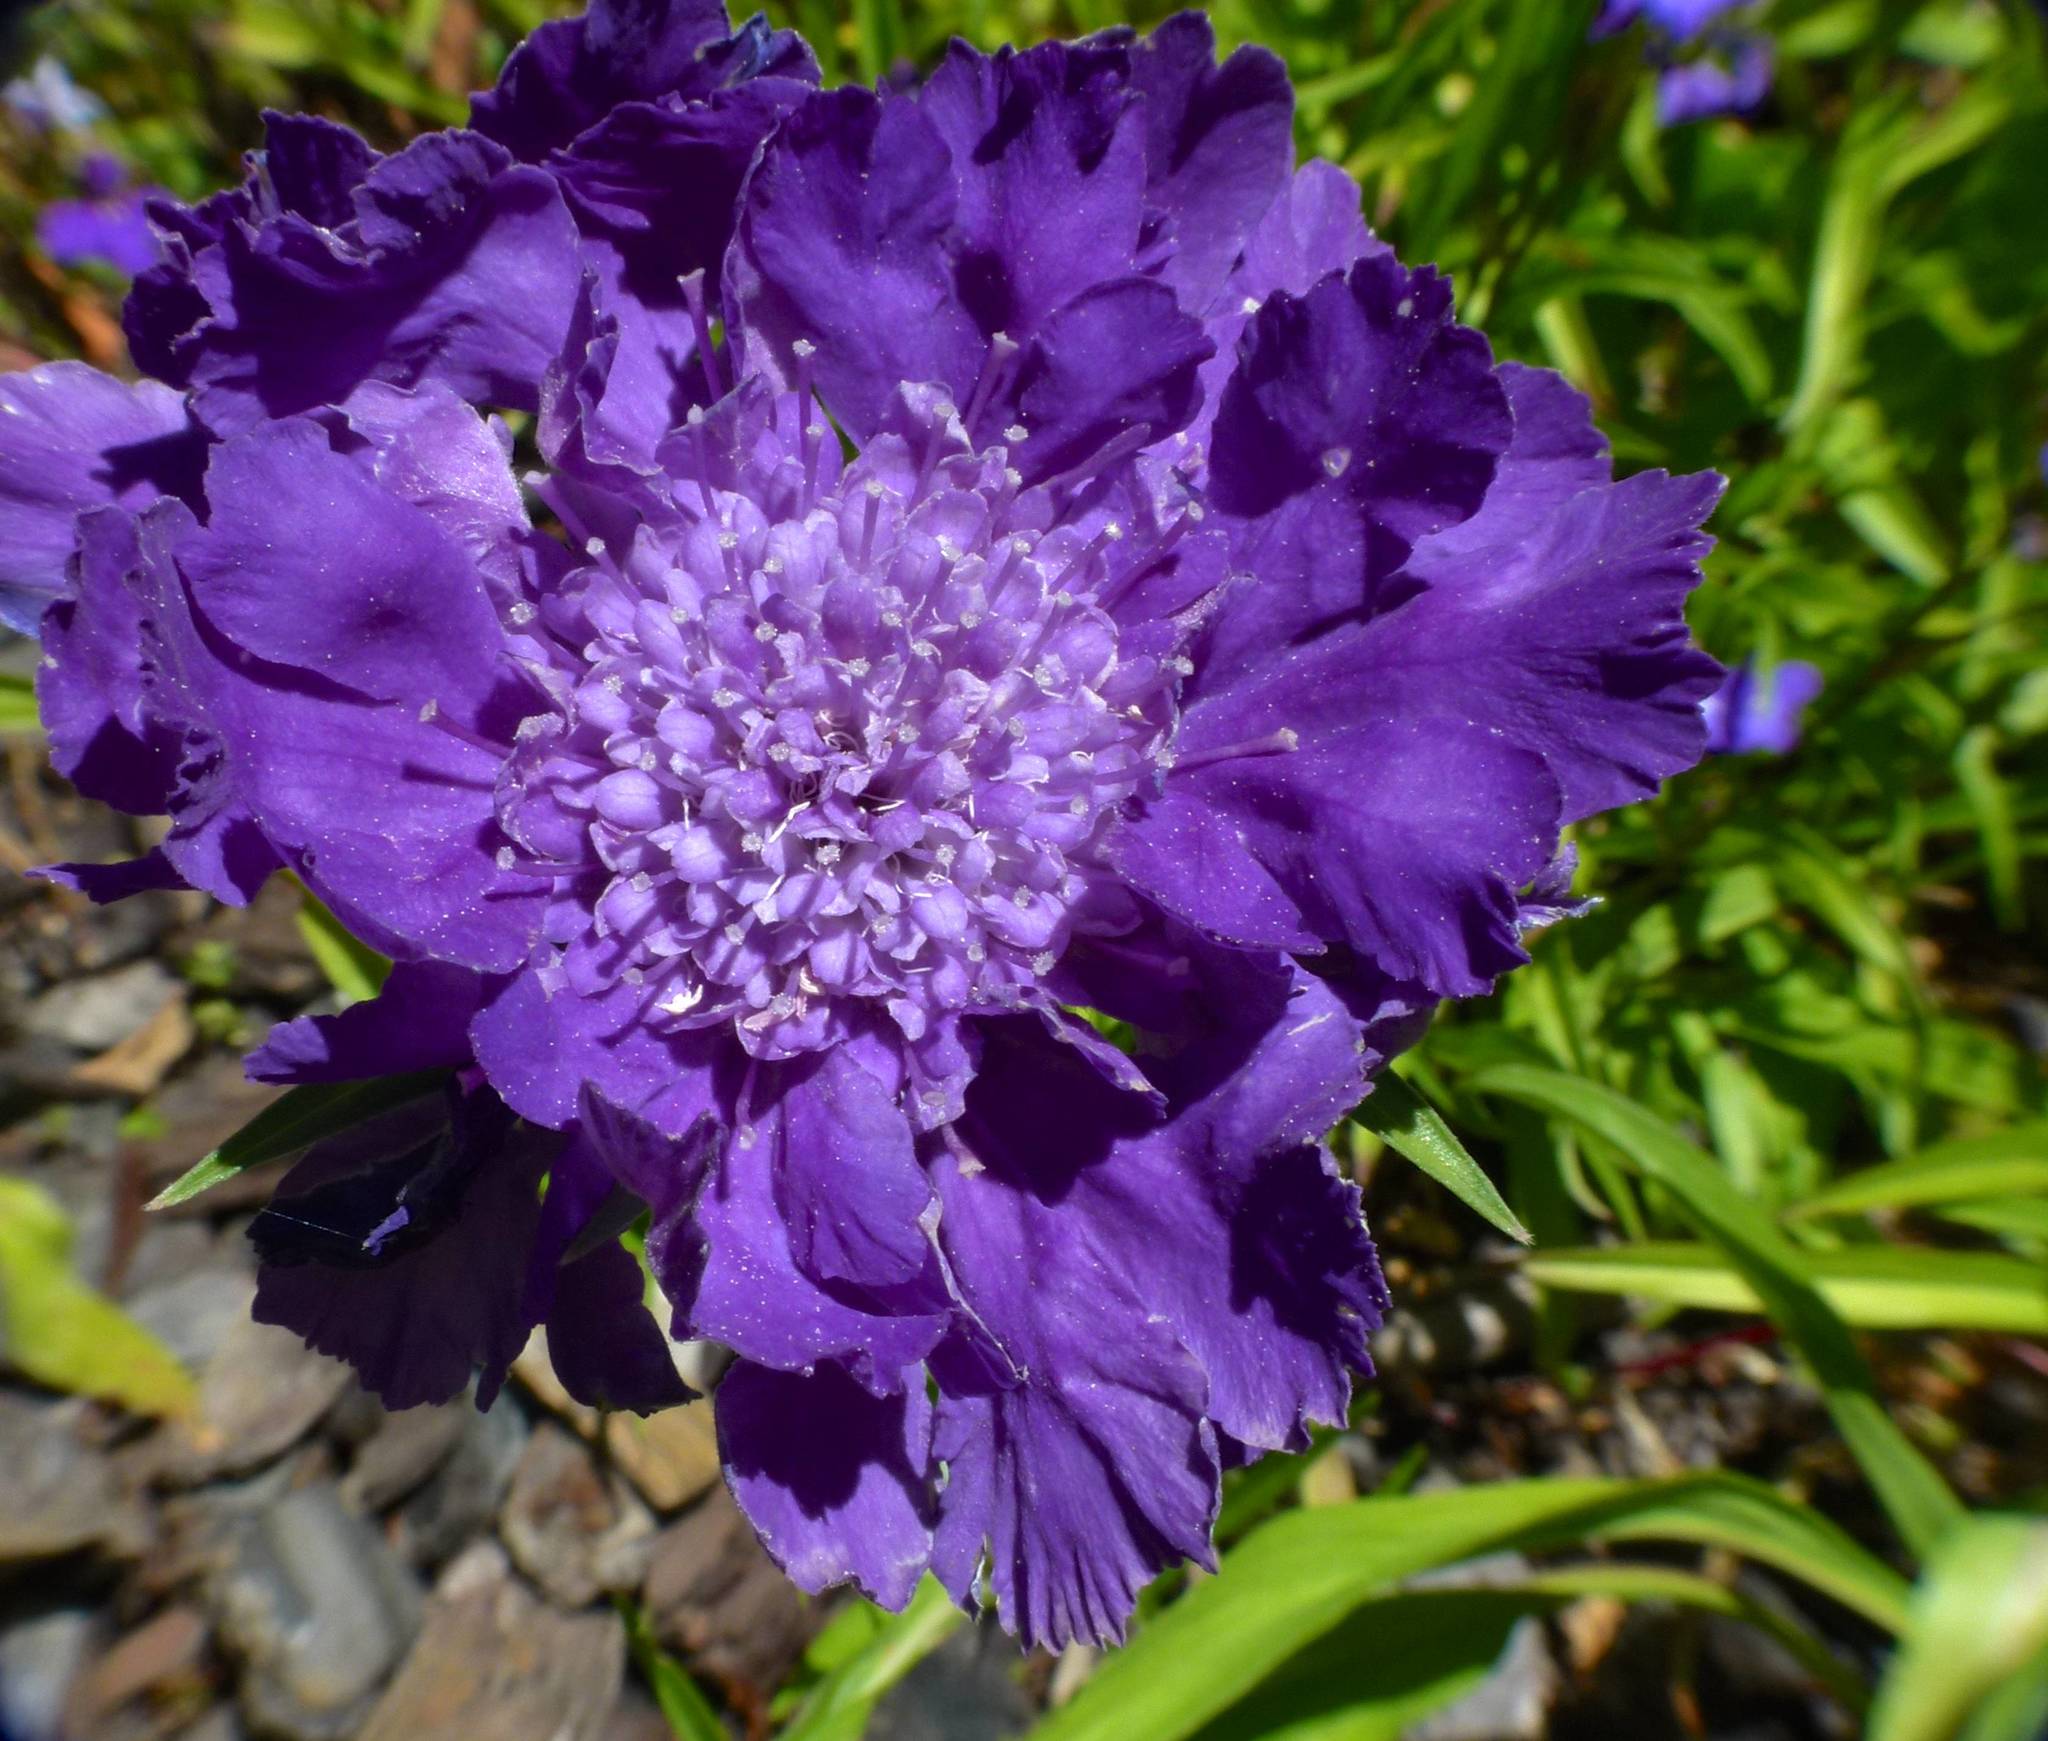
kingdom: Plantae
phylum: Tracheophyta
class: Magnoliopsida
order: Dipsacales
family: Caprifoliaceae
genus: Lomelosia
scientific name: Lomelosia caucasica
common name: Pincushion-flower
